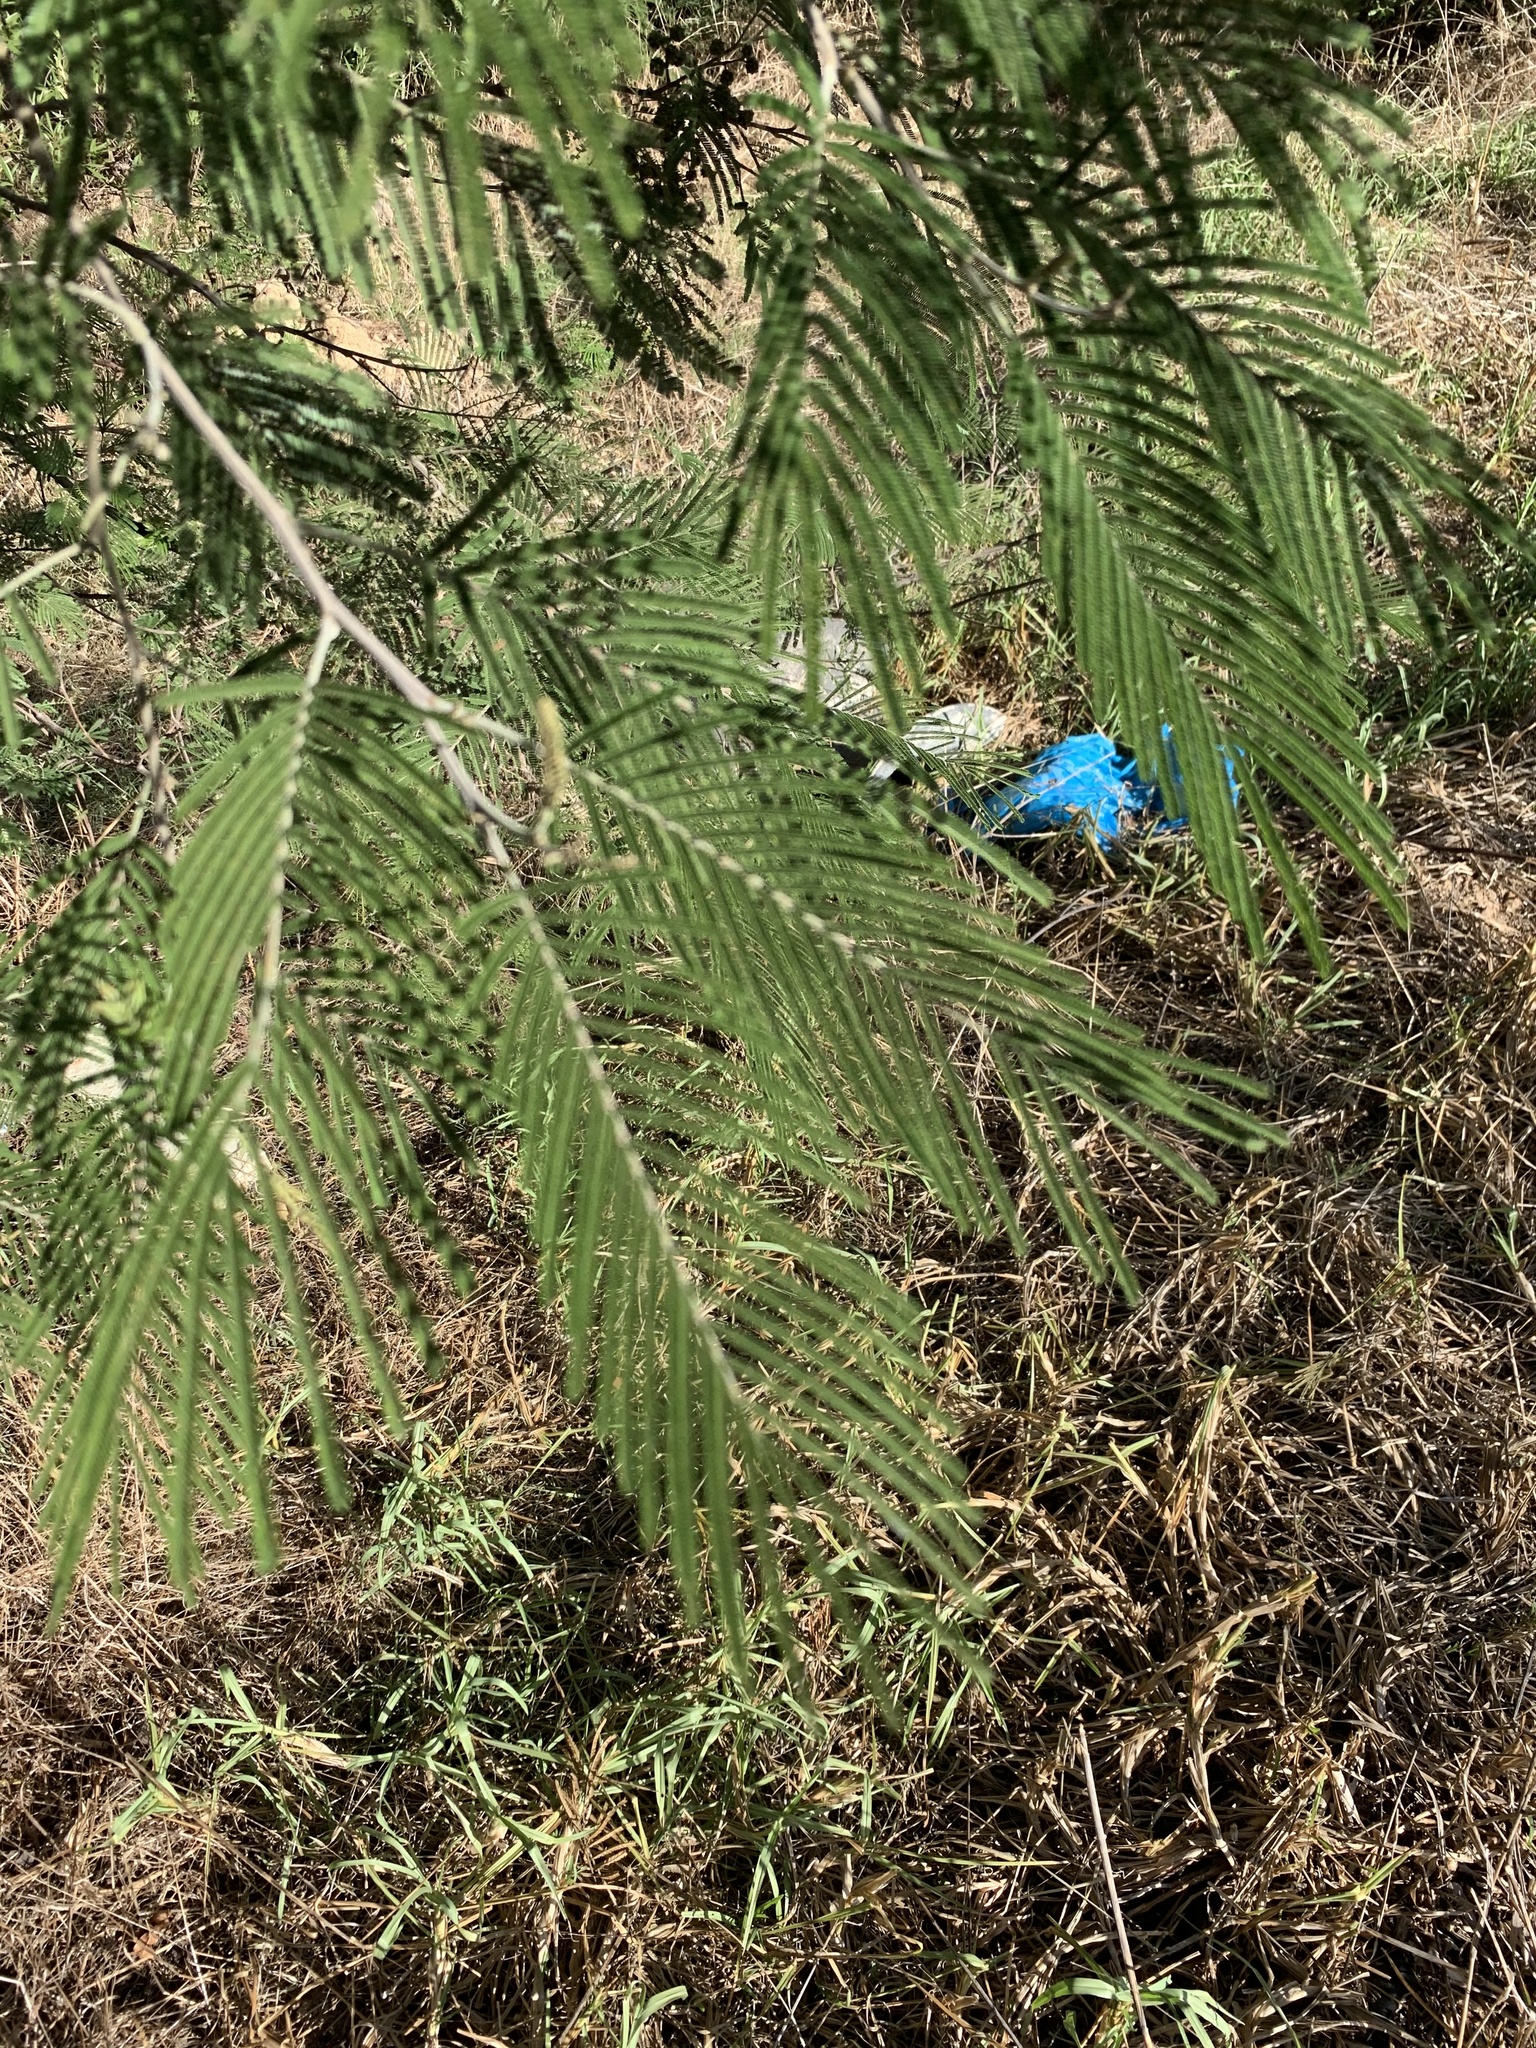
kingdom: Plantae
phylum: Tracheophyta
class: Magnoliopsida
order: Fabales
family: Fabaceae
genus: Acacia
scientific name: Acacia mearnsii
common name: Black wattle
